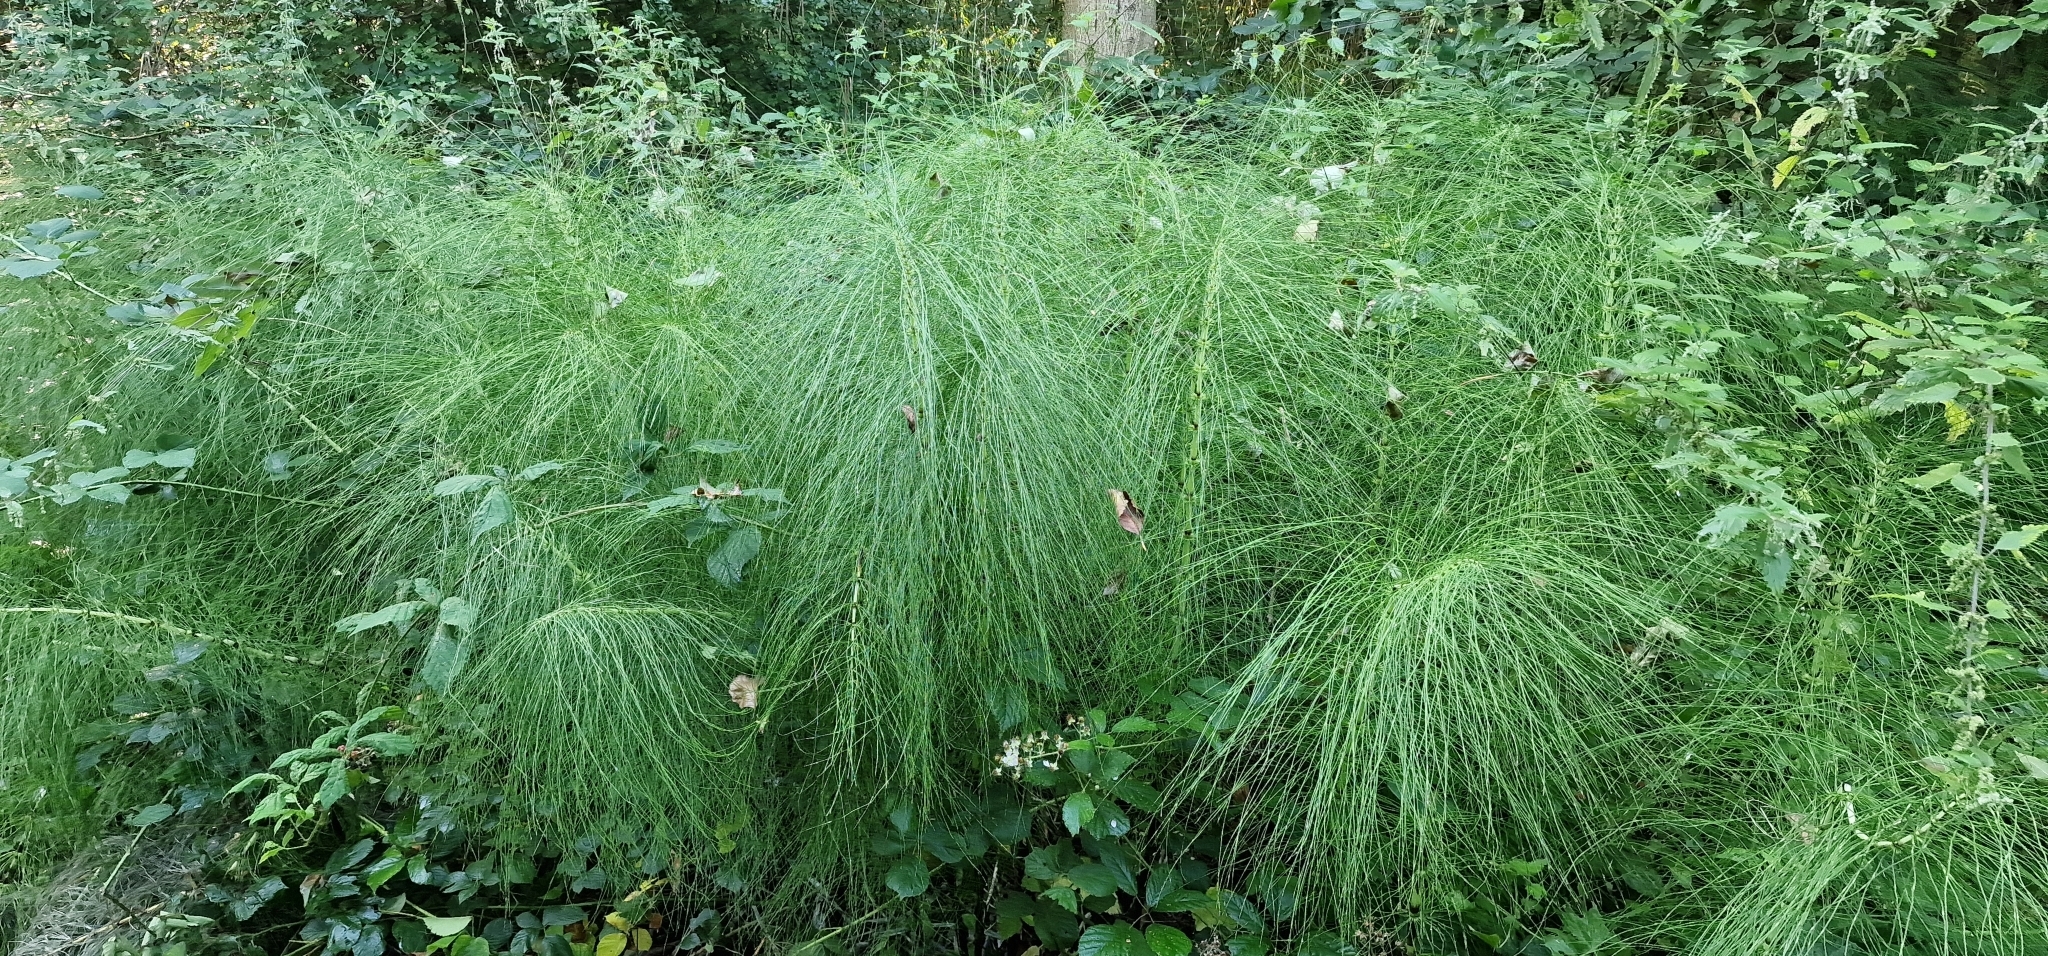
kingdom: Plantae
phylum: Tracheophyta
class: Polypodiopsida
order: Equisetales
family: Equisetaceae
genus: Equisetum
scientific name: Equisetum telmateia
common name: Great horsetail
